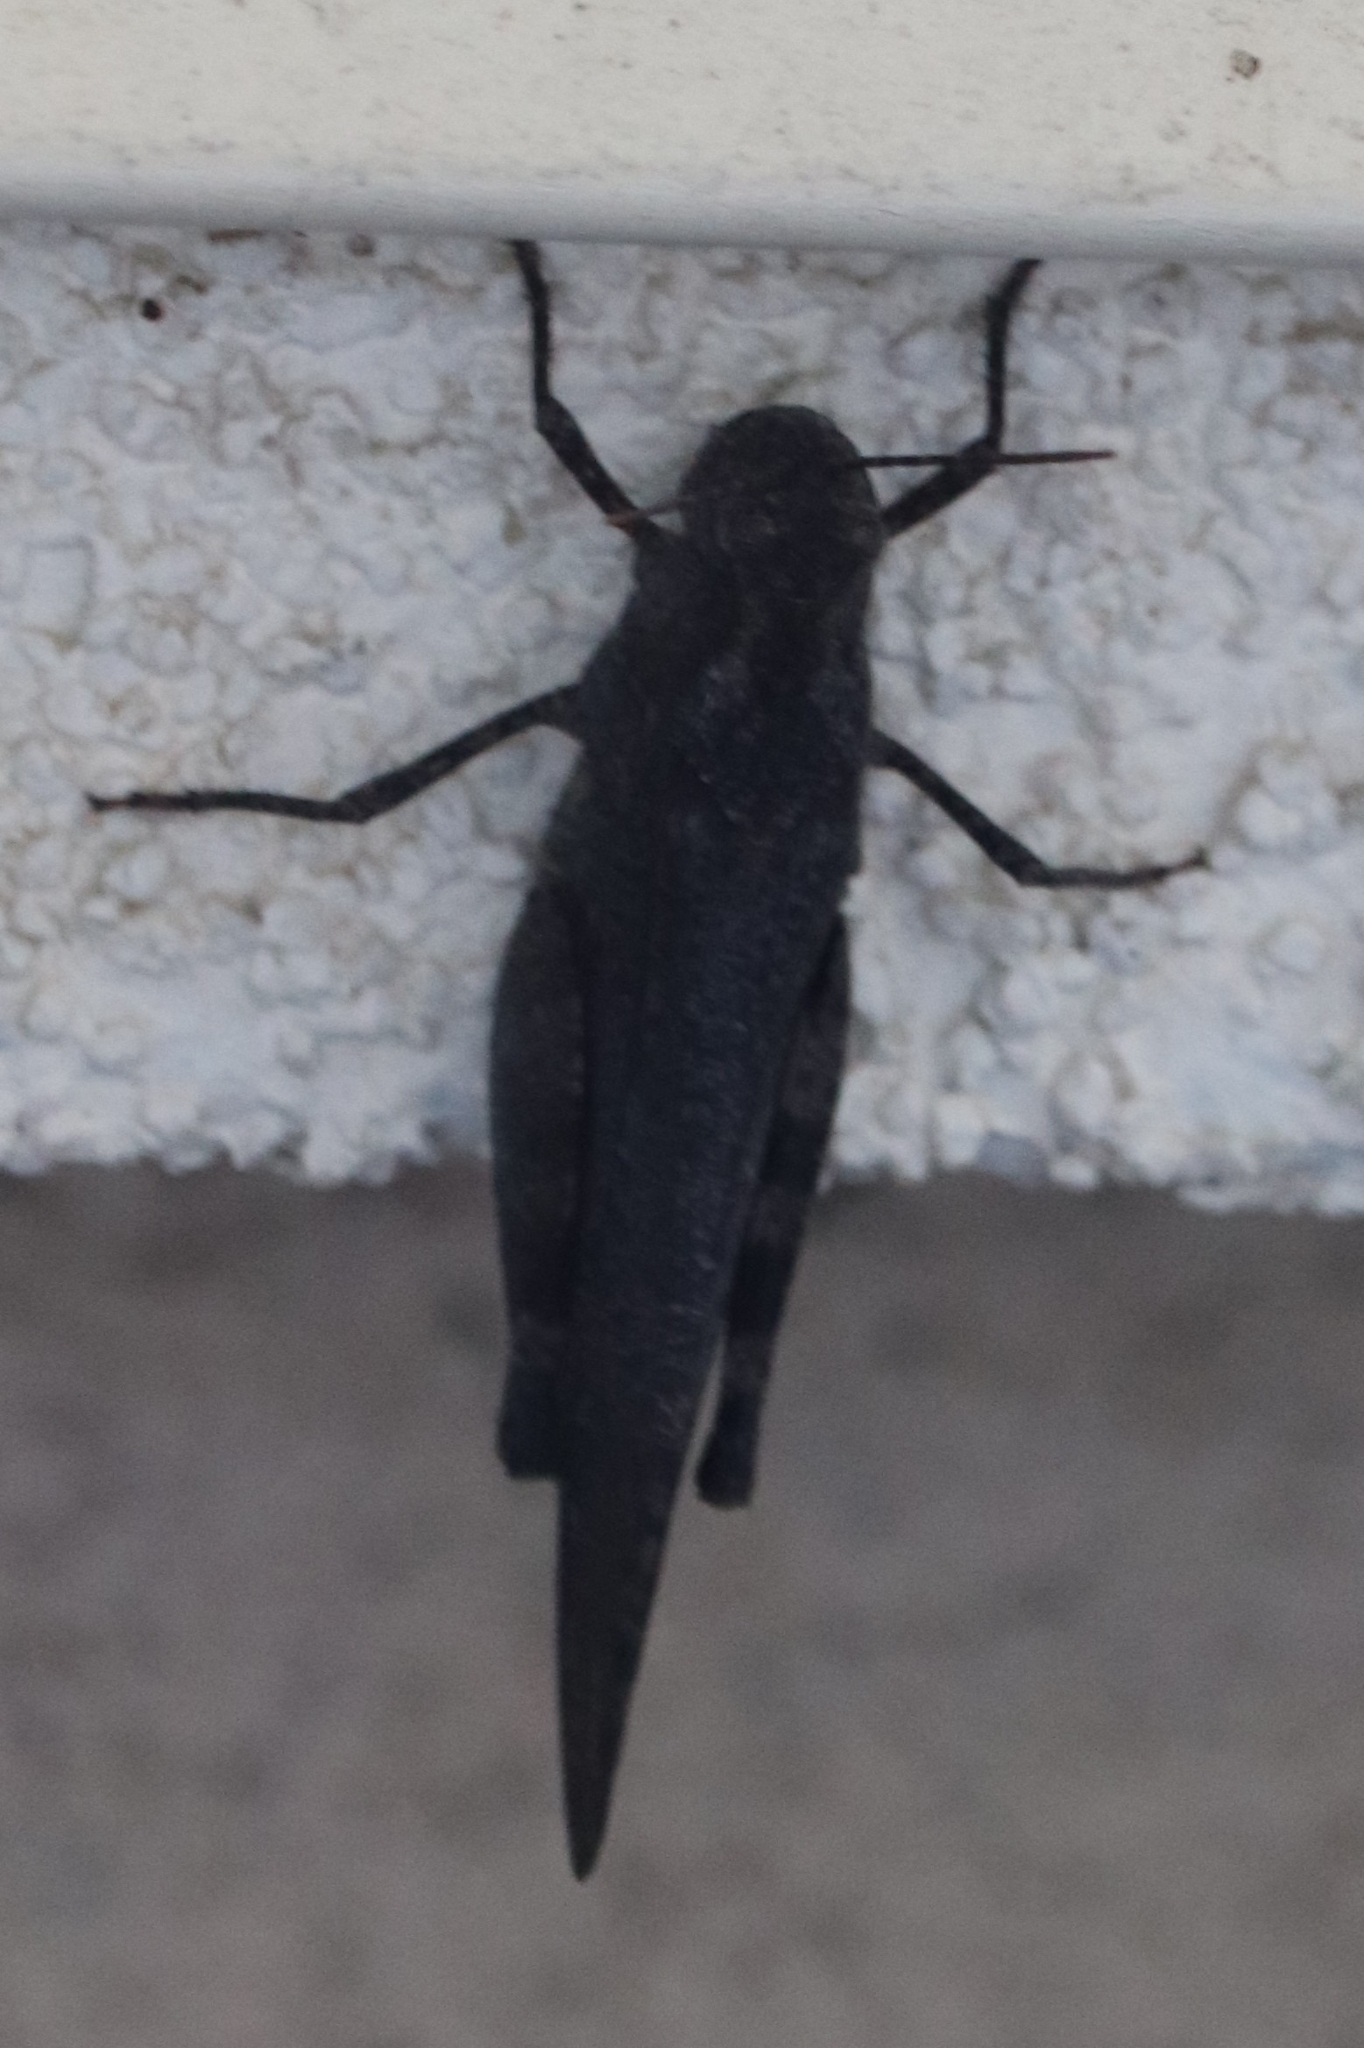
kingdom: Animalia
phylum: Arthropoda
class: Insecta
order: Orthoptera
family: Acrididae
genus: Trimerotropis
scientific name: Trimerotropis verruculata
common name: Crackling forest grasshopper
